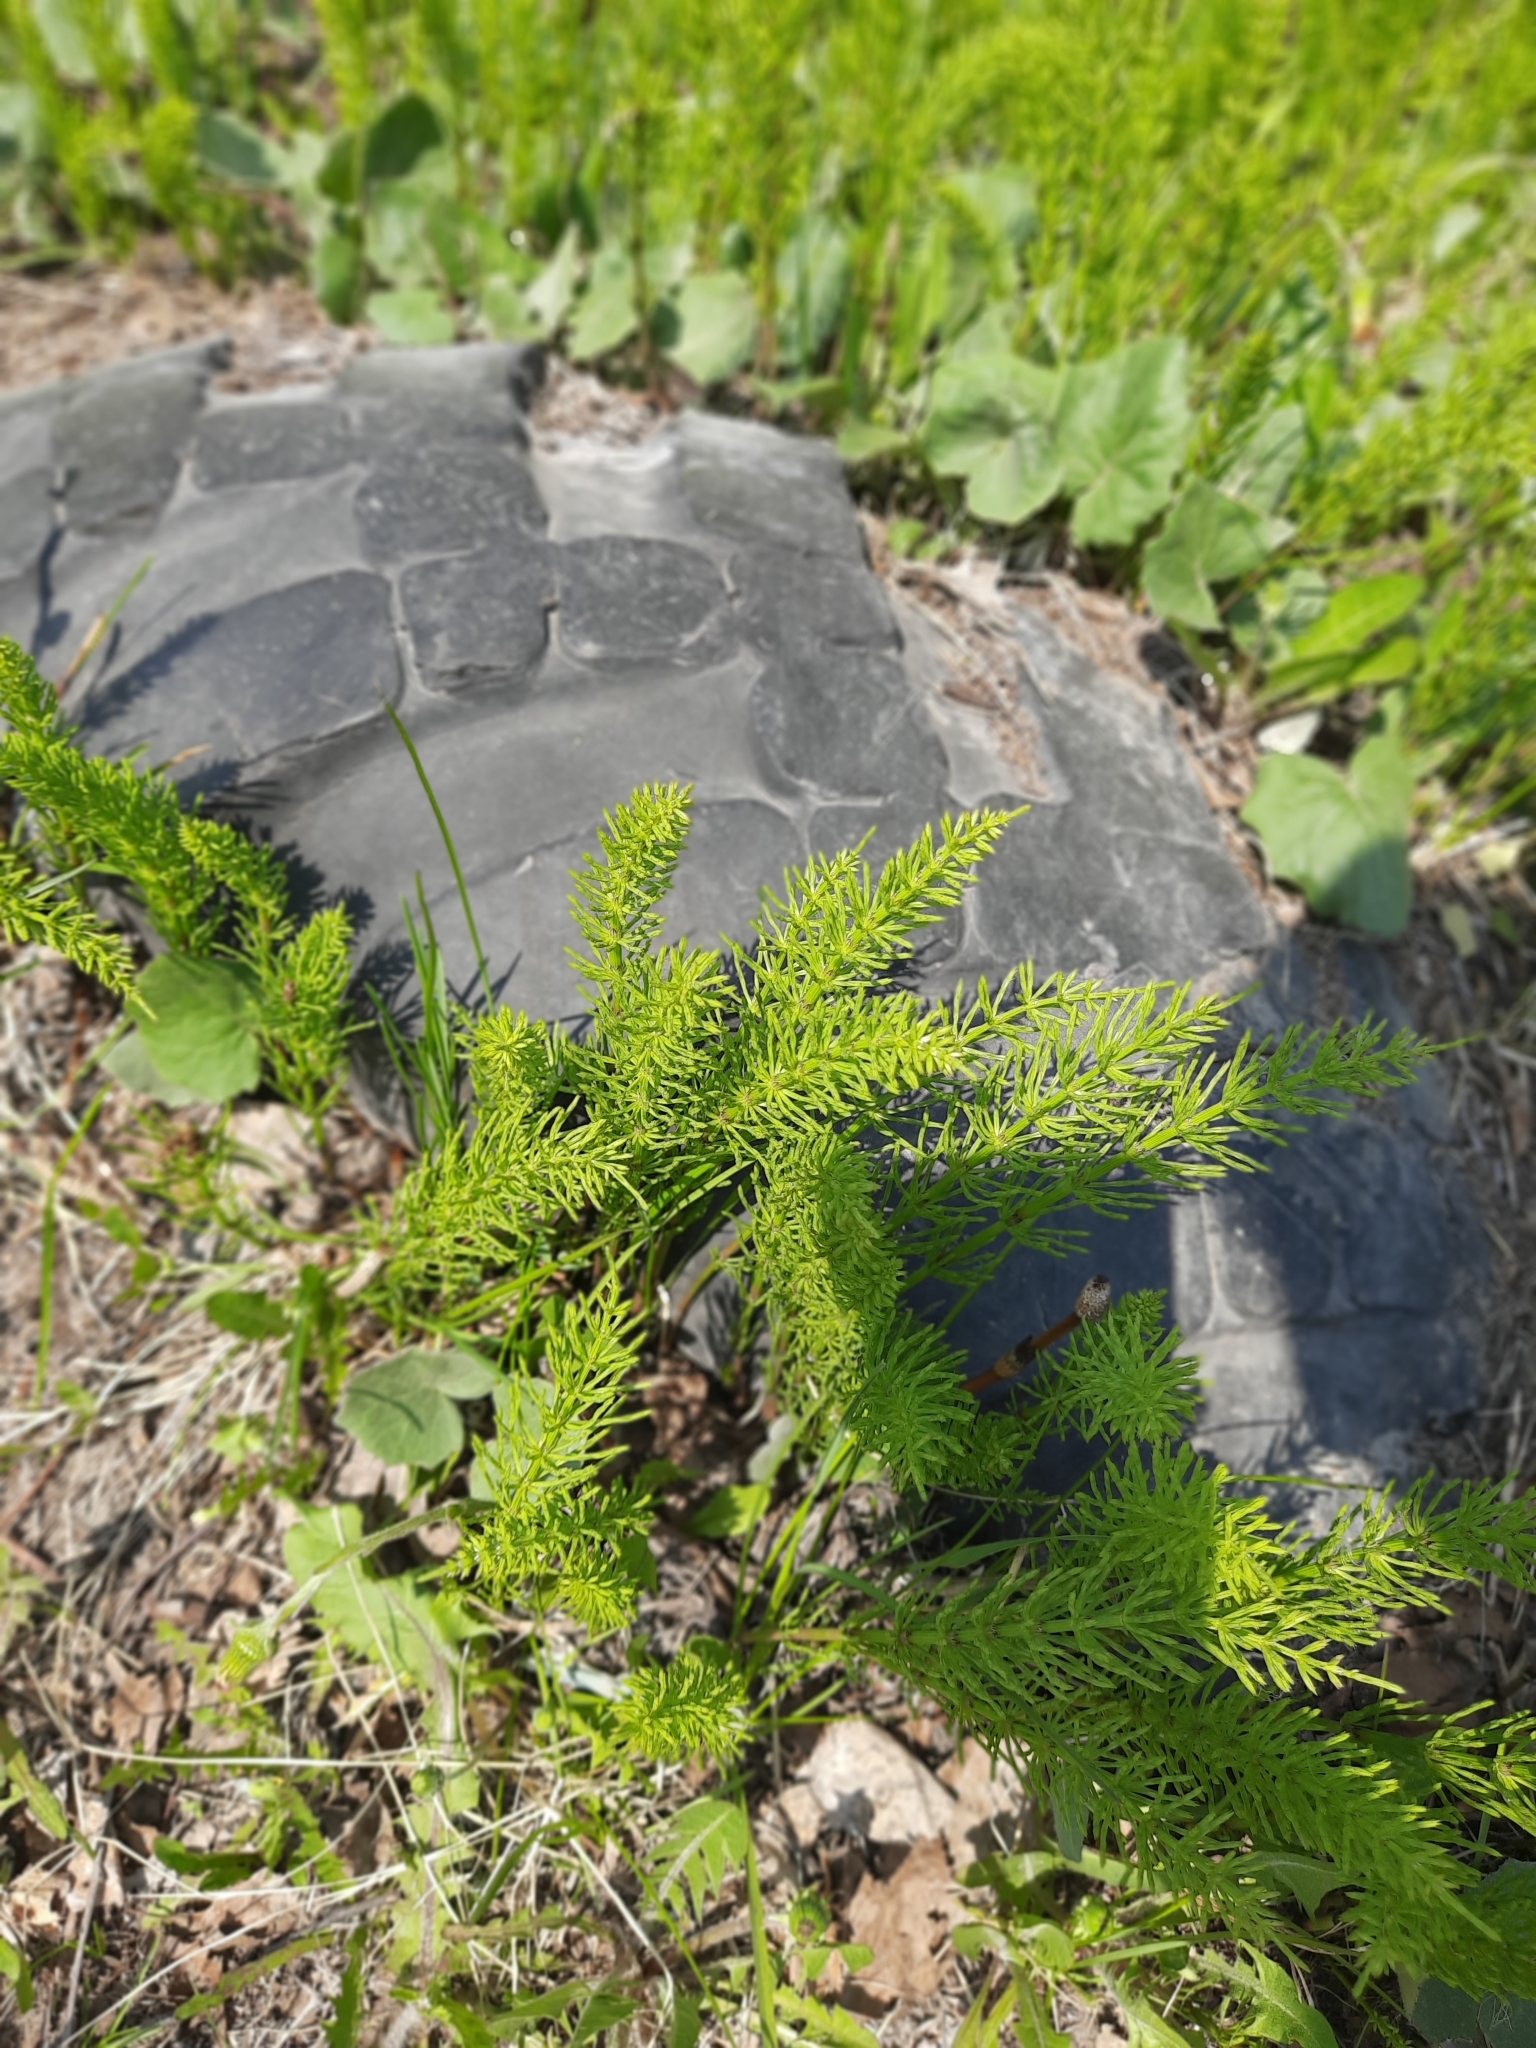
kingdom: Plantae
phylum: Tracheophyta
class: Polypodiopsida
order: Equisetales
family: Equisetaceae
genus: Equisetum
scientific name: Equisetum arvense
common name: Field horsetail
